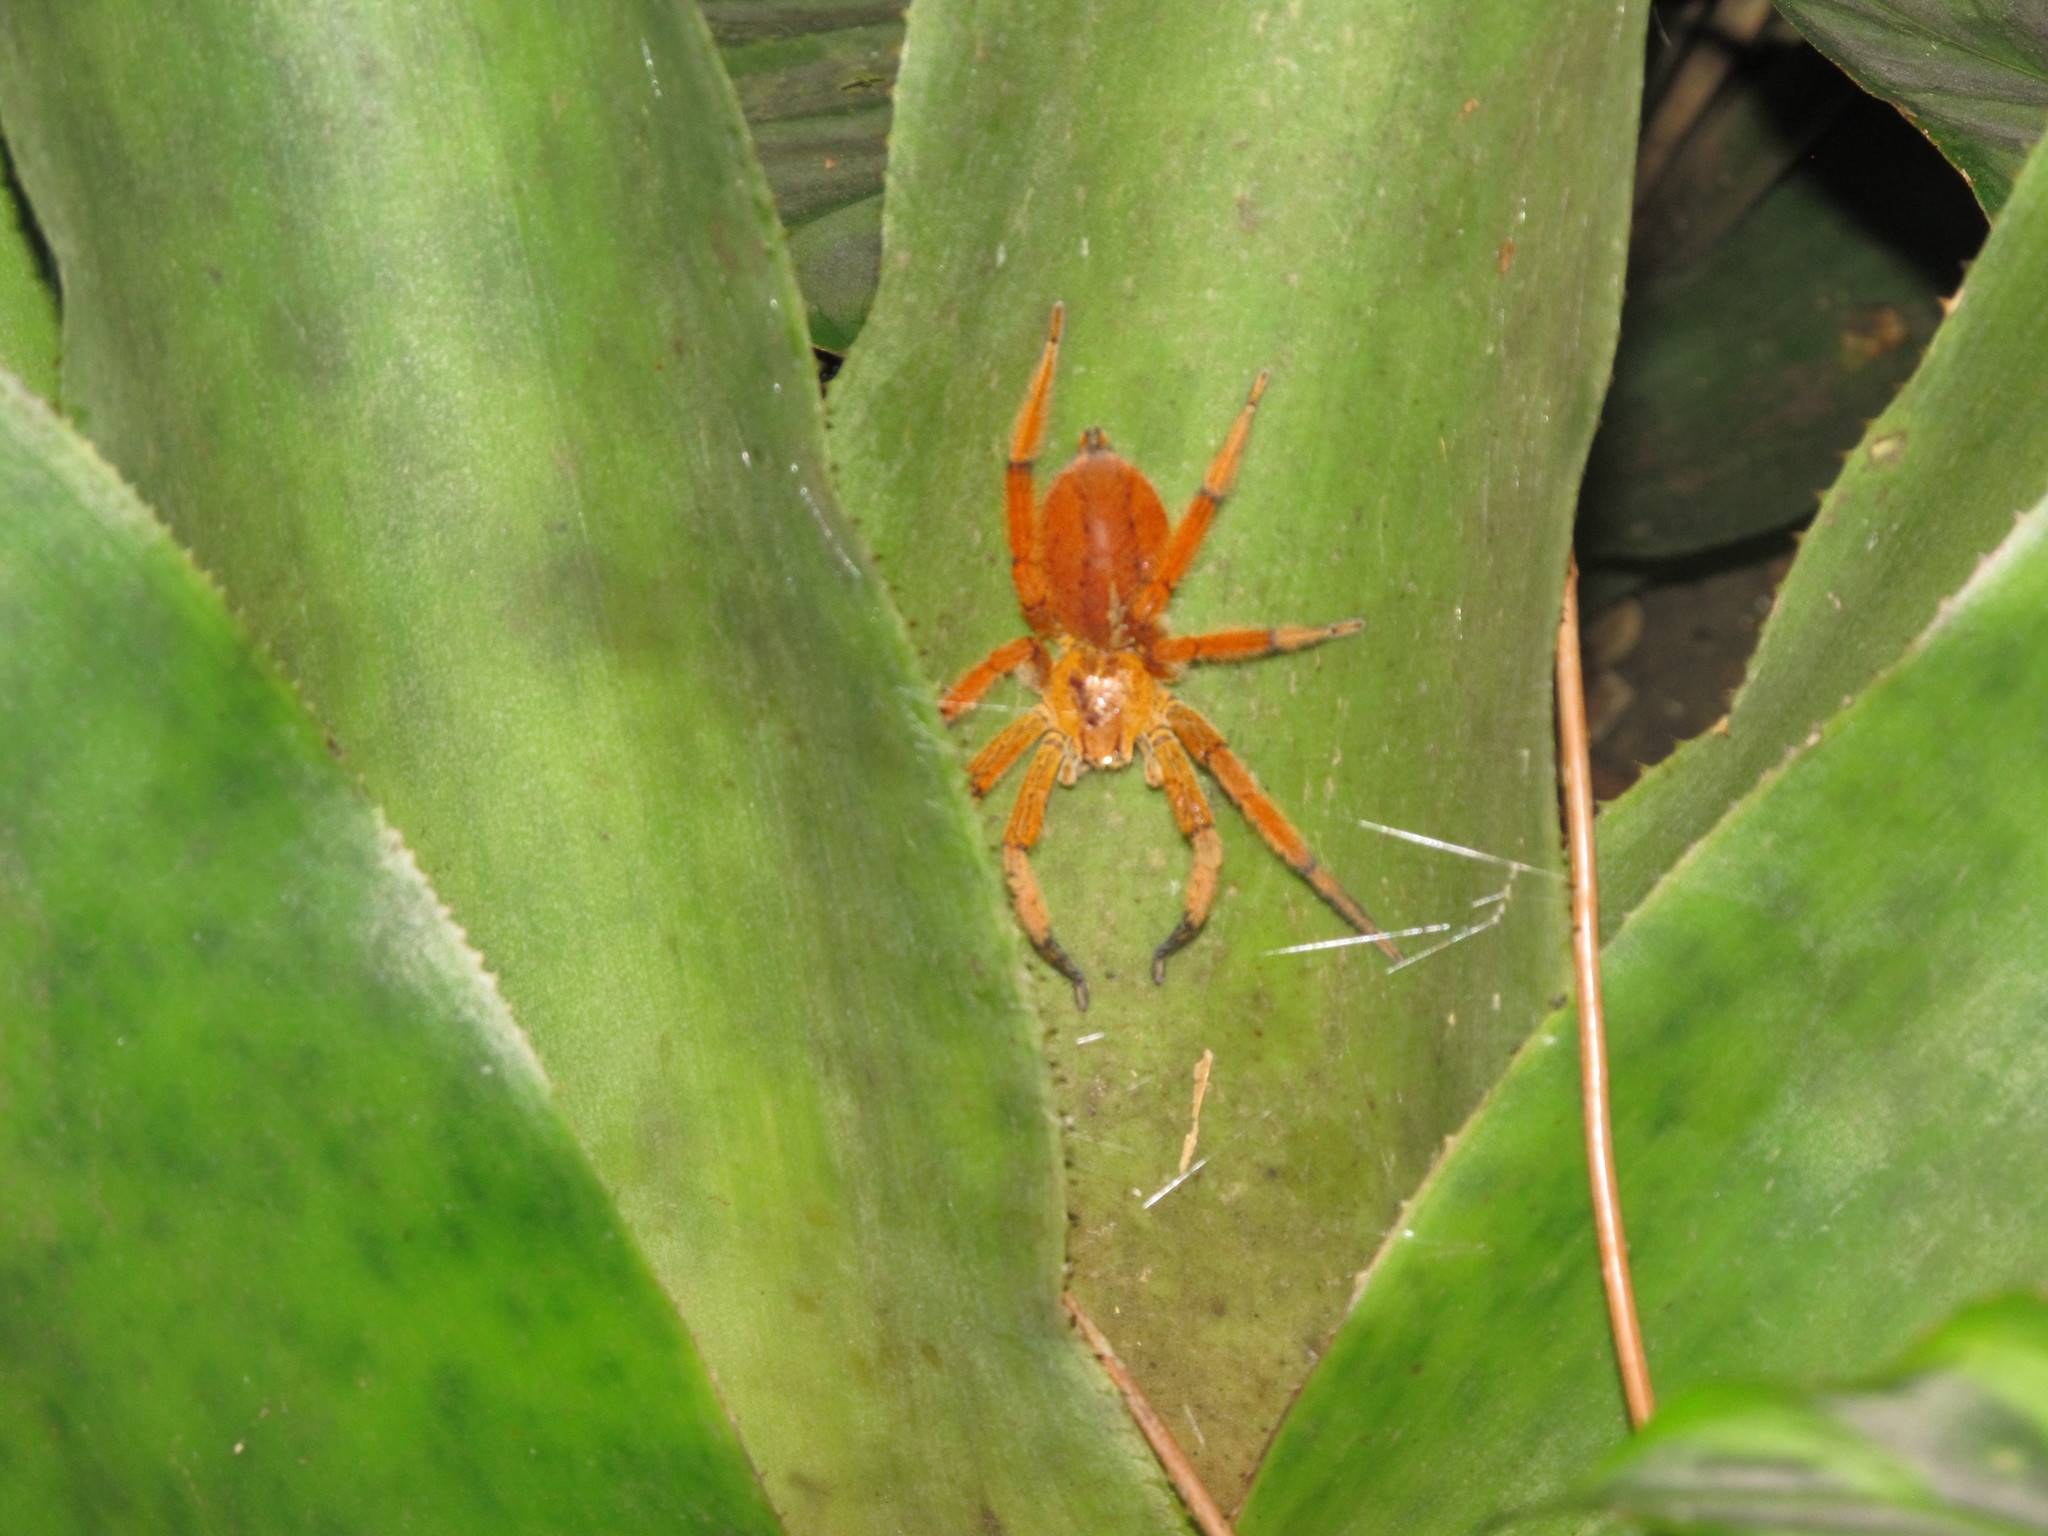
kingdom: Animalia
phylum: Arthropoda
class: Arachnida
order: Araneae
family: Trechaleidae
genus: Cupiennius
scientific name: Cupiennius getazi
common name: Wandering spiders
